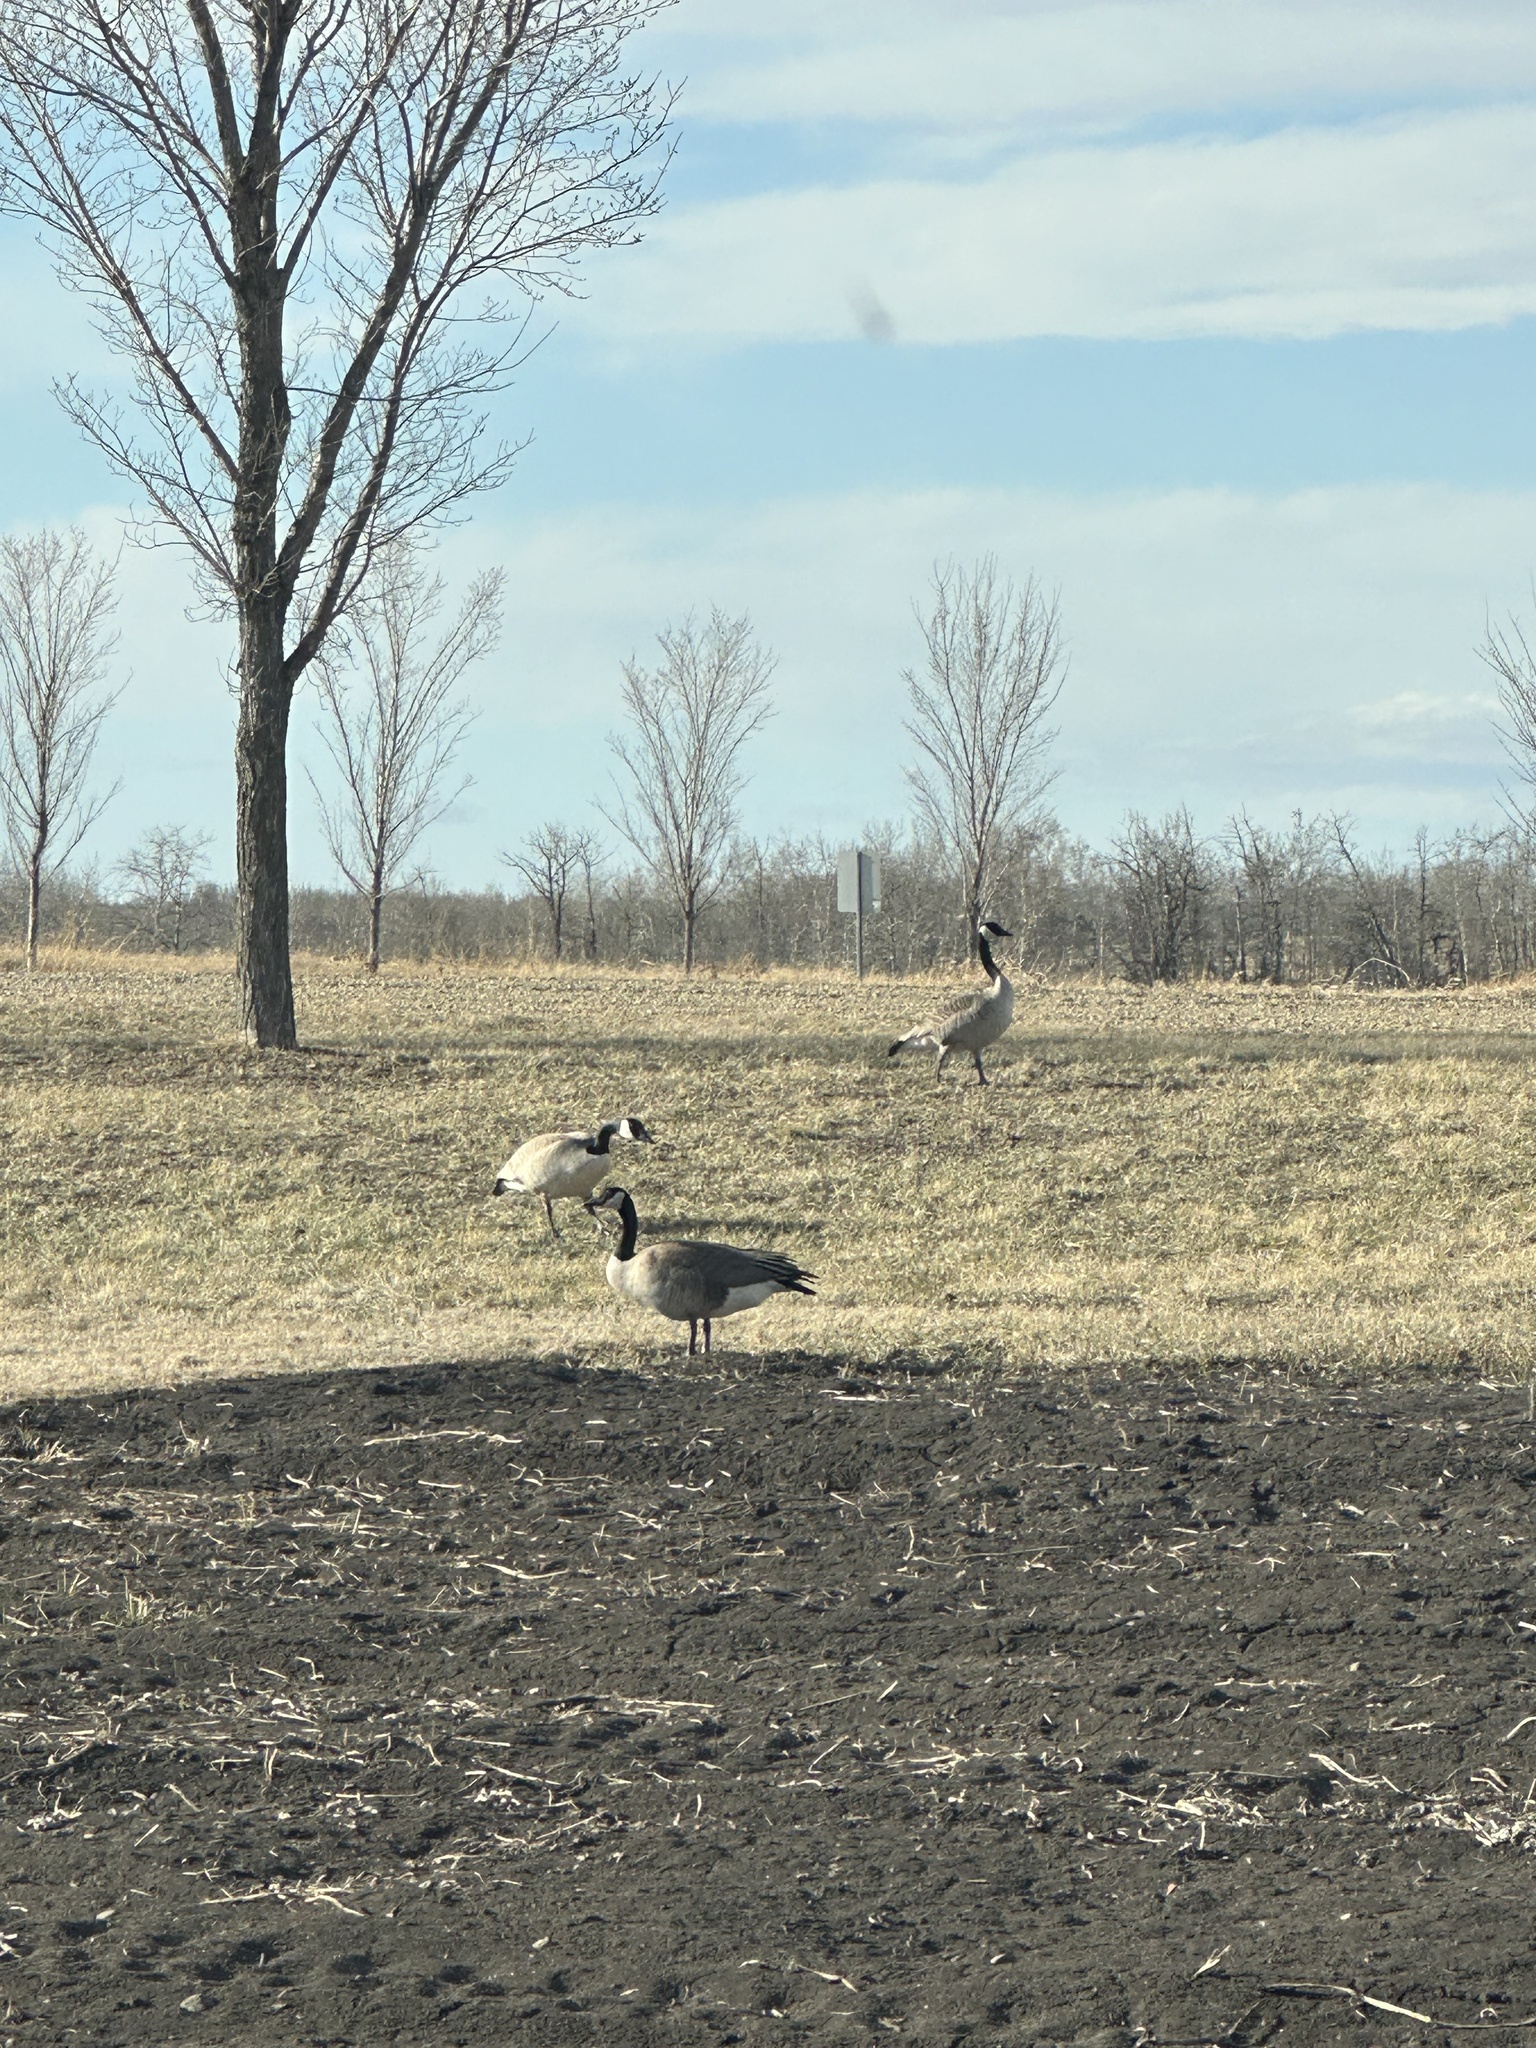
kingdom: Animalia
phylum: Chordata
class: Aves
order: Anseriformes
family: Anatidae
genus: Branta
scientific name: Branta canadensis
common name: Canada goose
